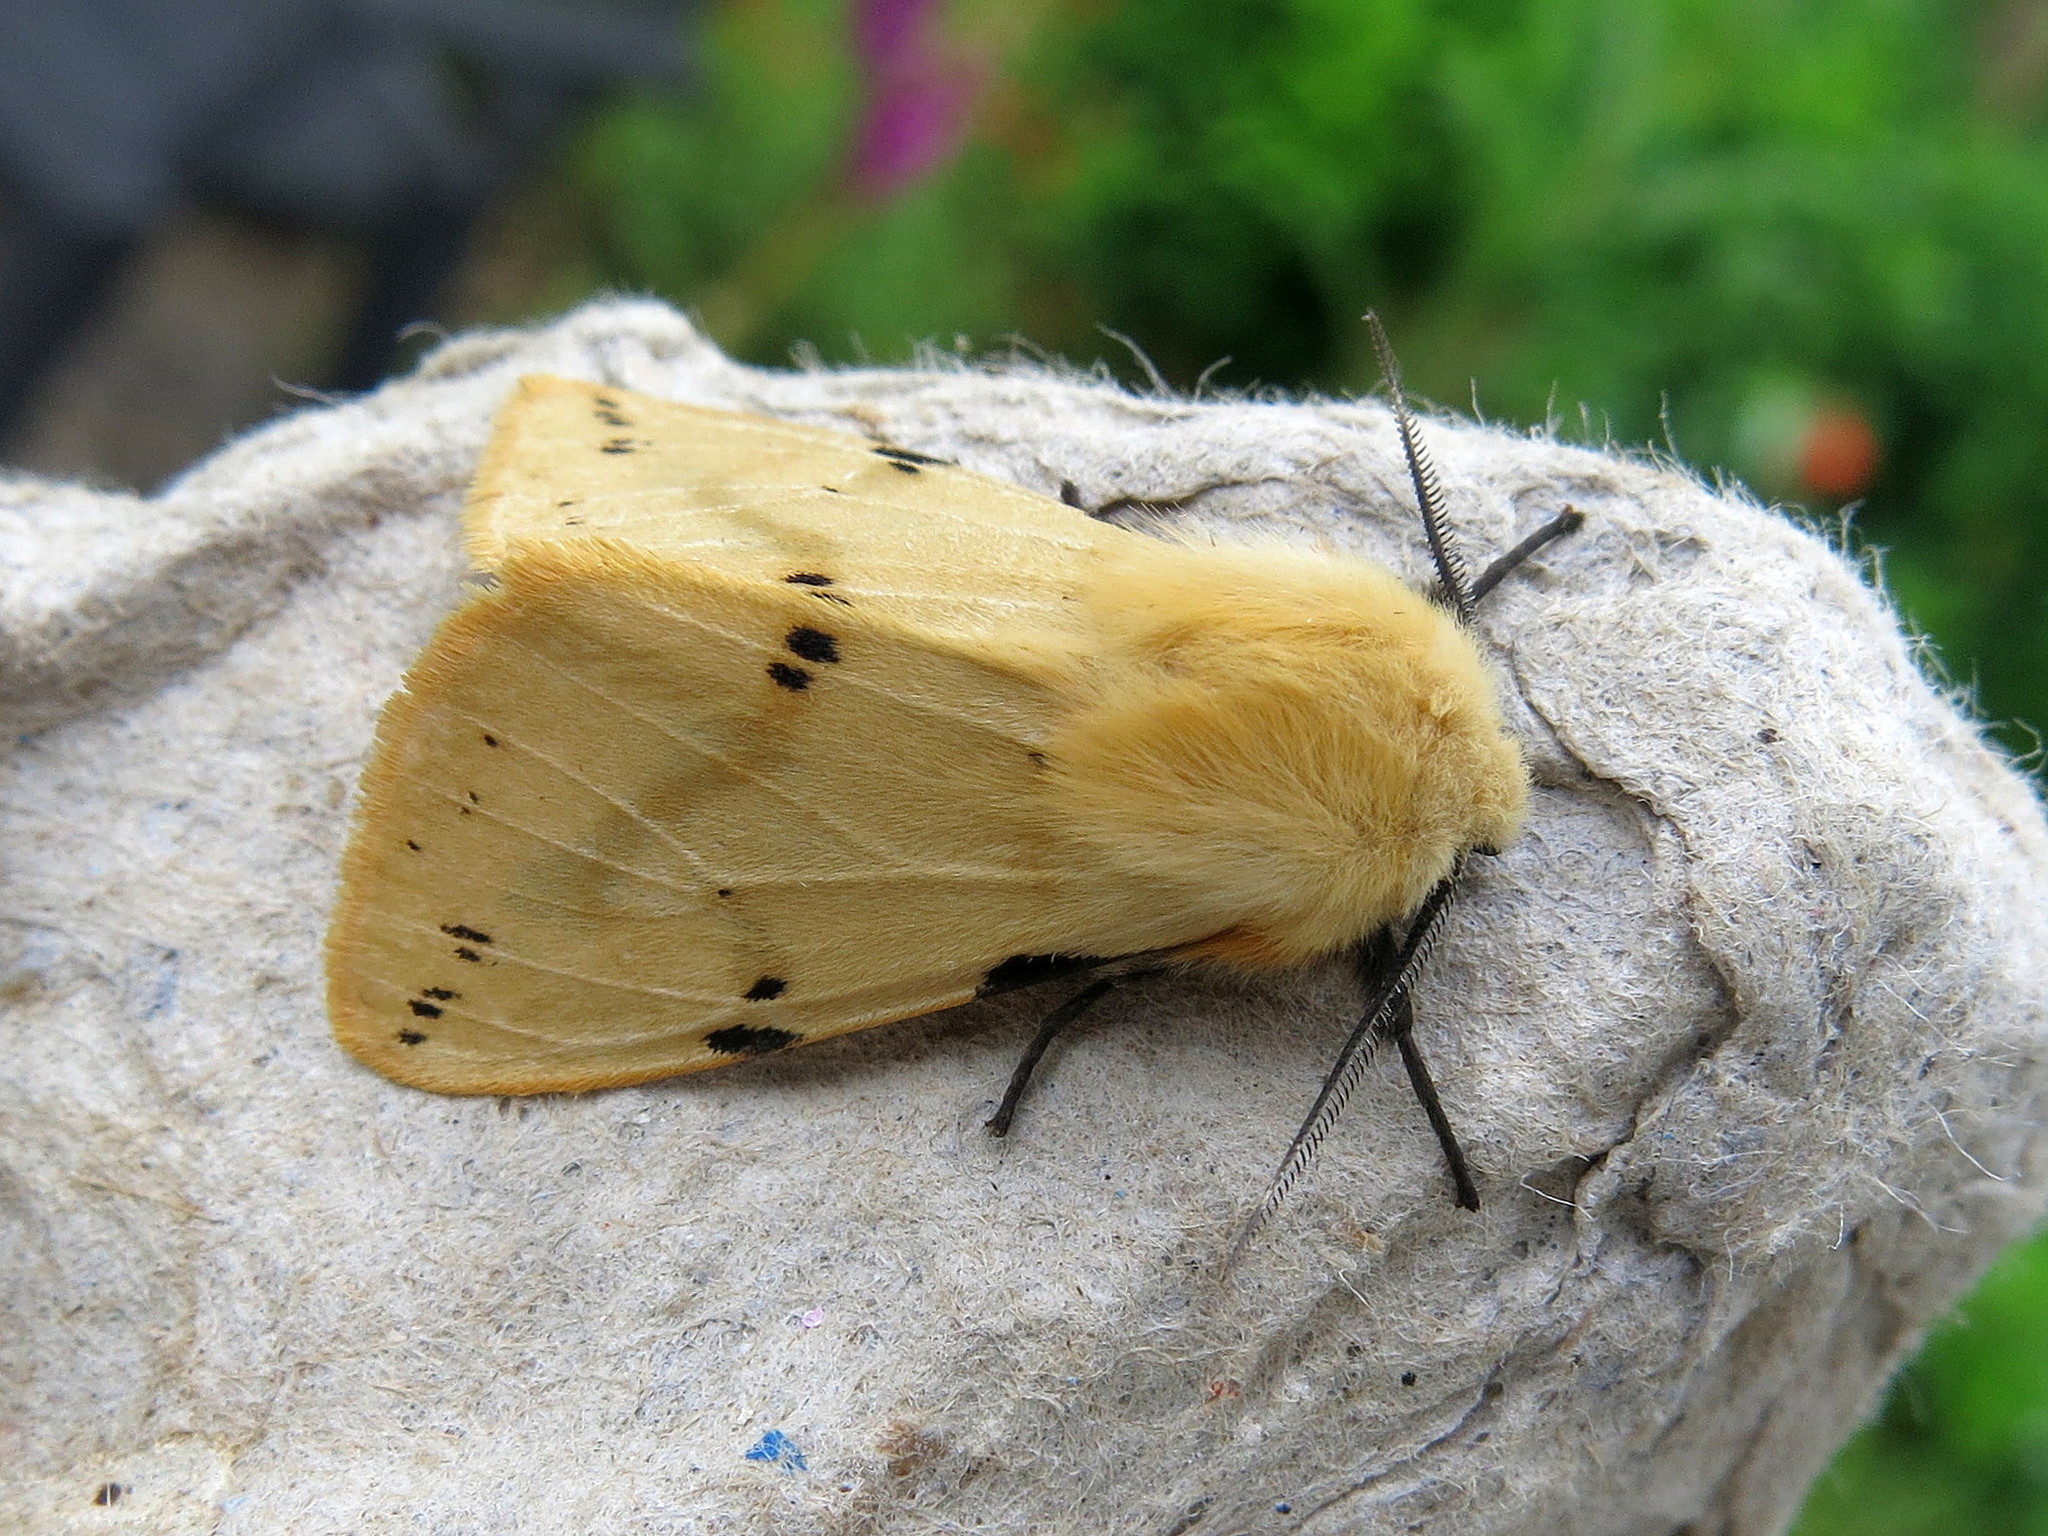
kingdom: Animalia
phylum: Arthropoda
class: Insecta
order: Lepidoptera
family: Erebidae
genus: Spilarctia
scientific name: Spilarctia lutea
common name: Buff ermine
